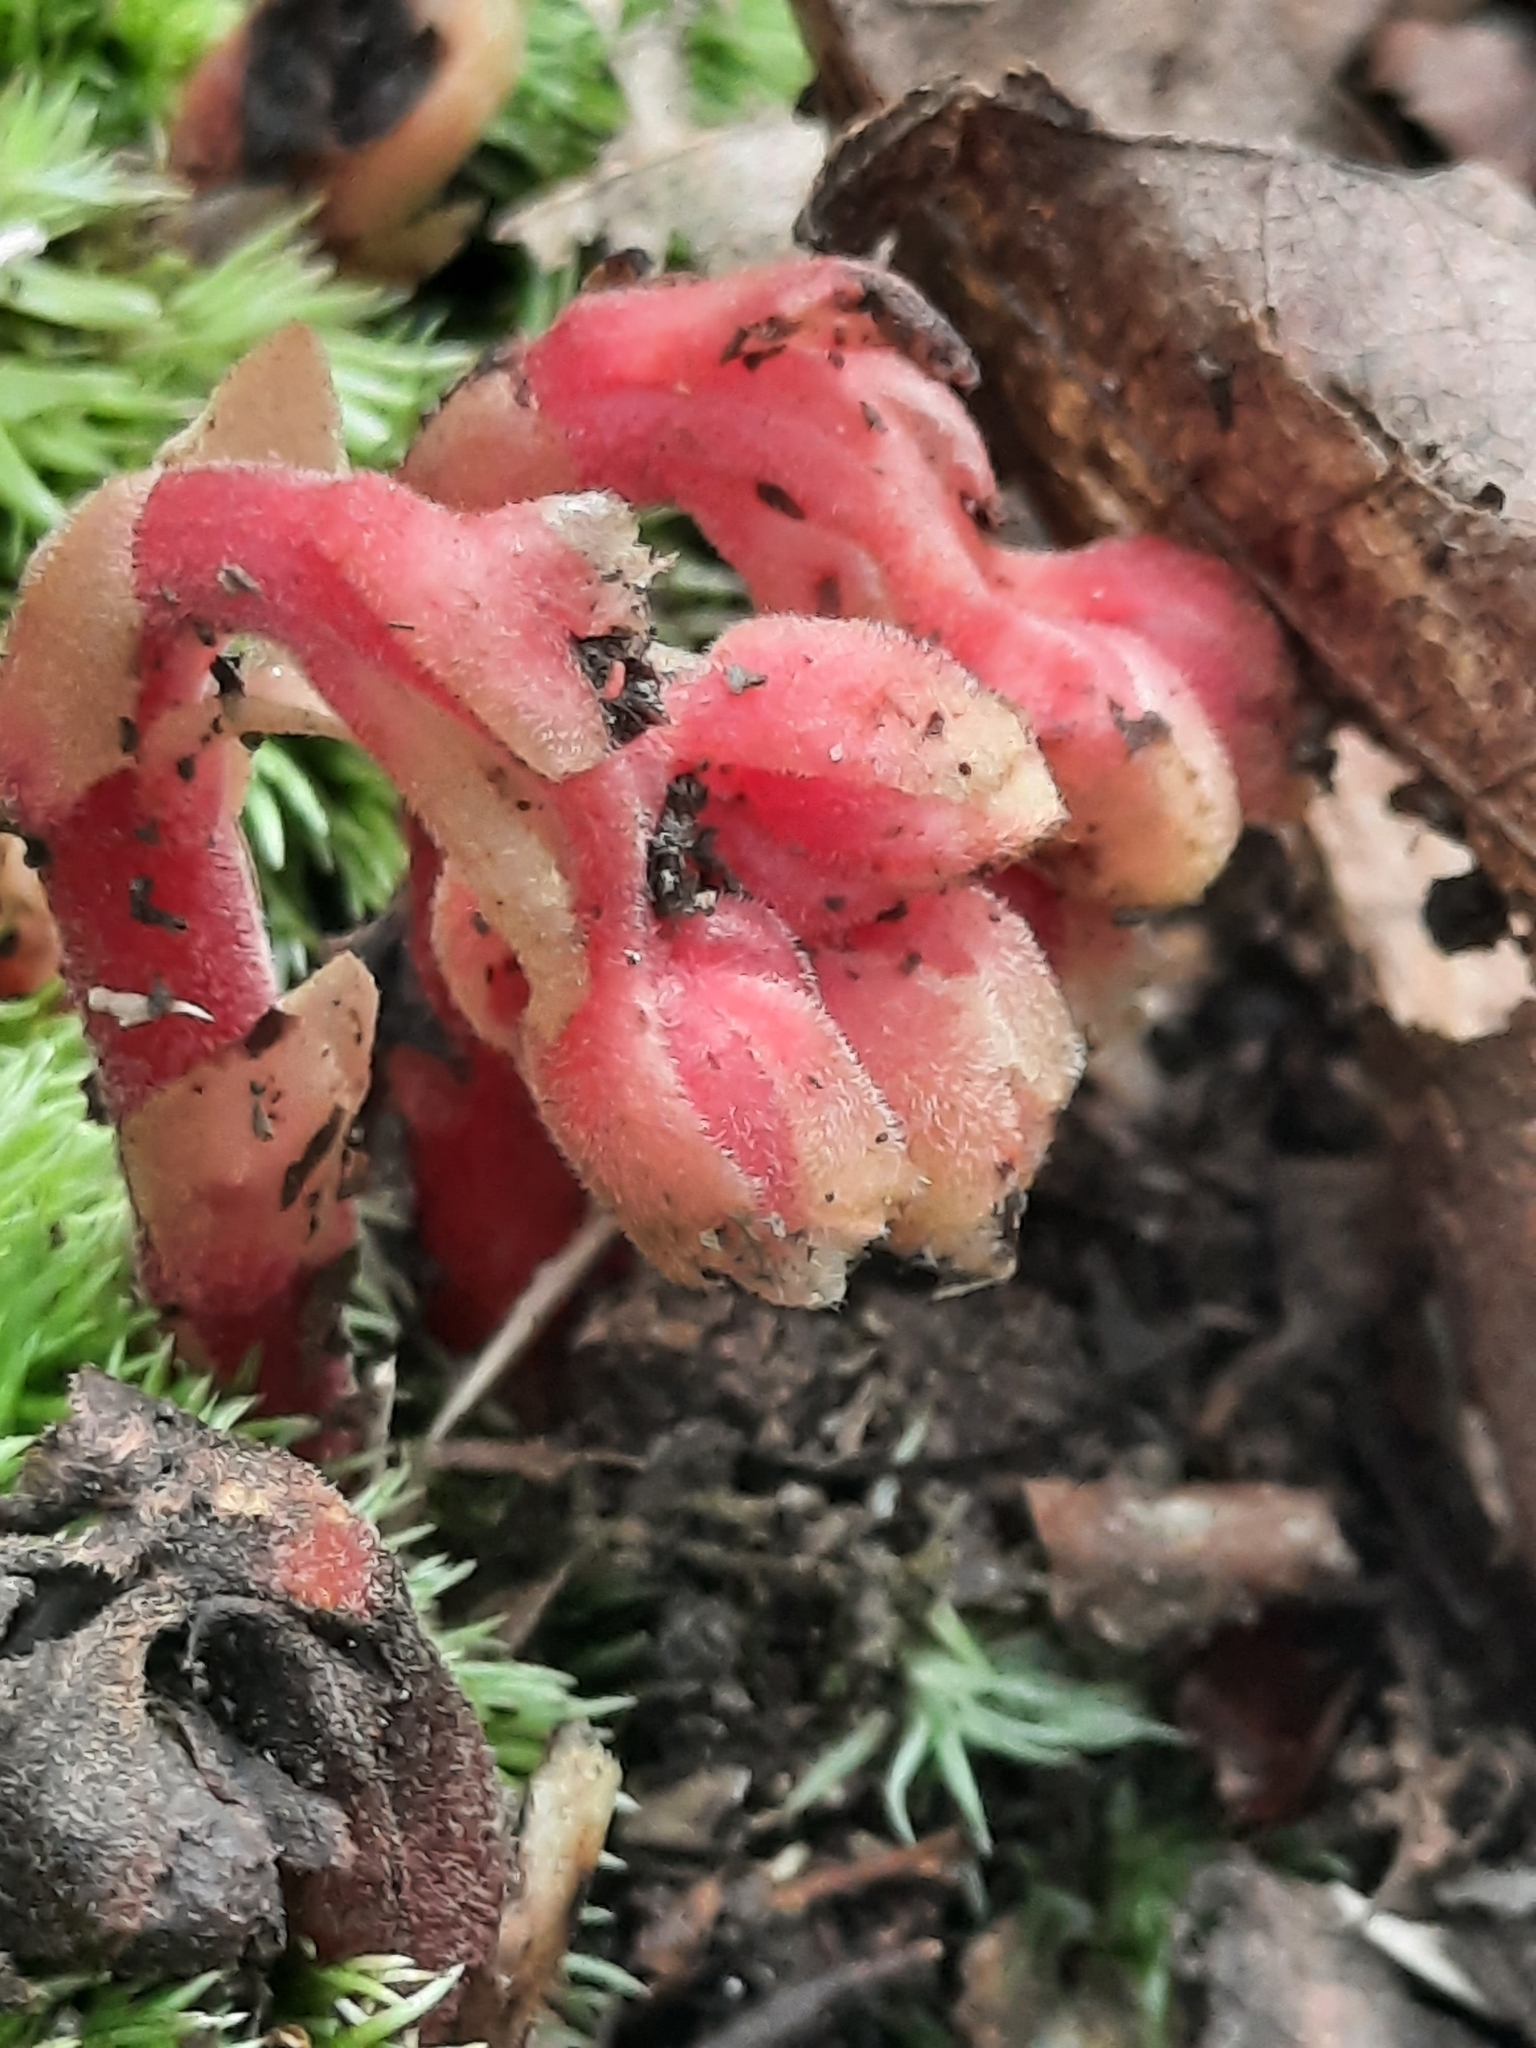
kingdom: Plantae
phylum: Tracheophyta
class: Magnoliopsida
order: Ericales
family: Ericaceae
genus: Hypopitys
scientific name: Hypopitys monotropa
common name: Yellow bird's-nest
